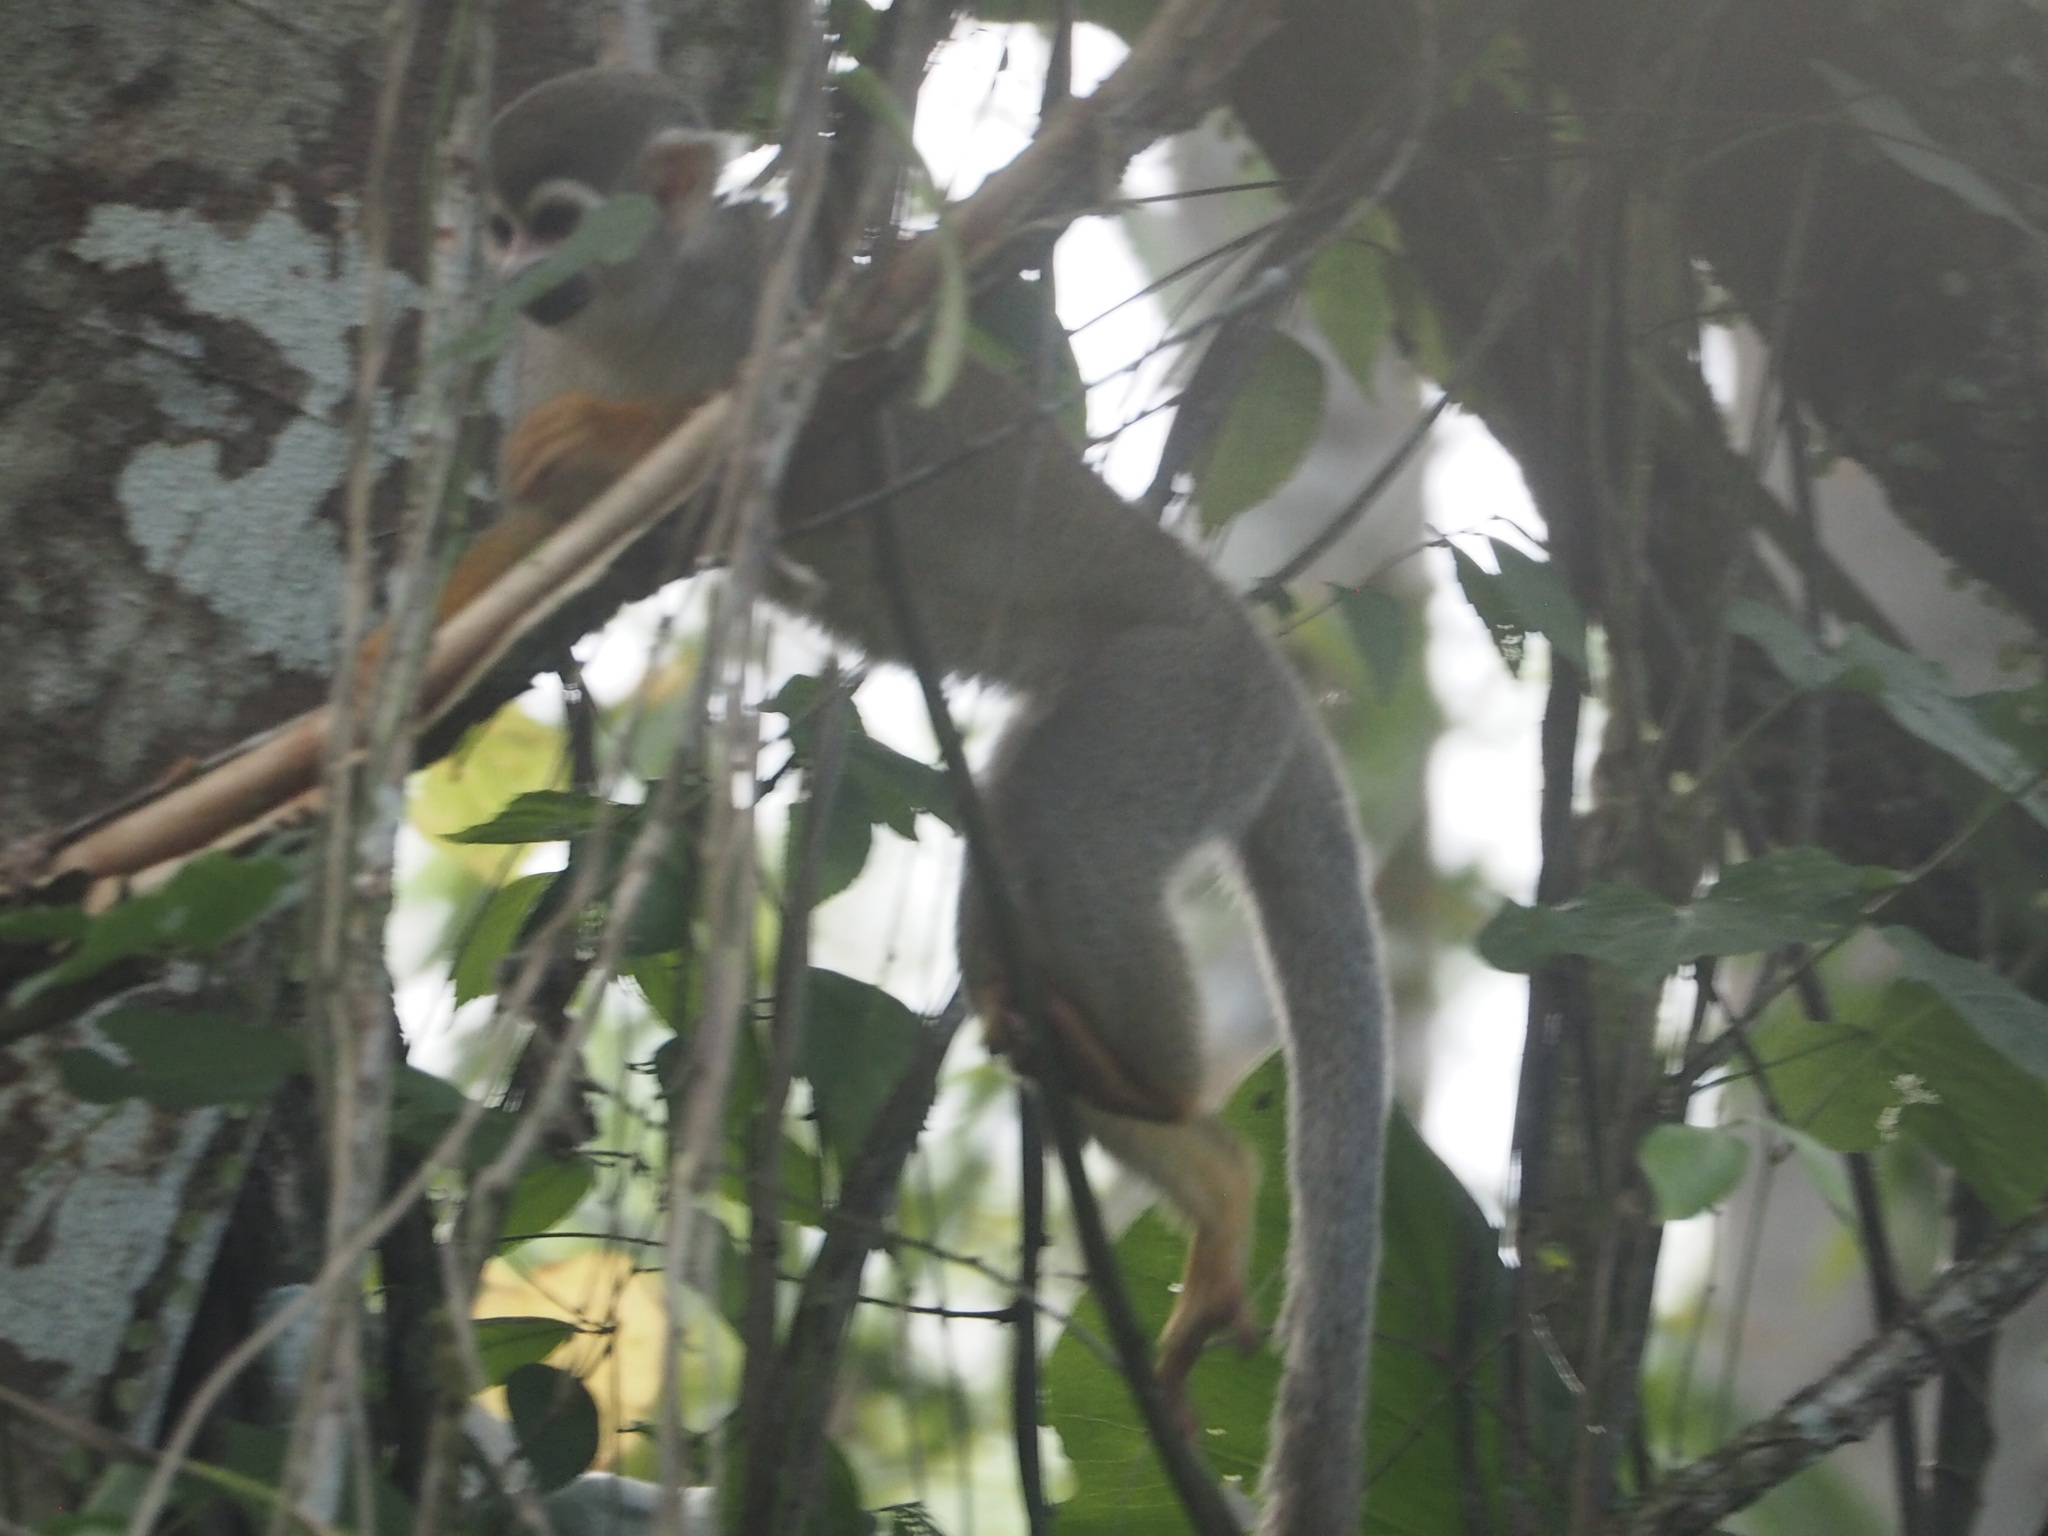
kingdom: Animalia
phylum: Chordata
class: Mammalia
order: Primates
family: Cebidae
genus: Saimiri
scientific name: Saimiri sciureus
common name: Common squirrel monkey
